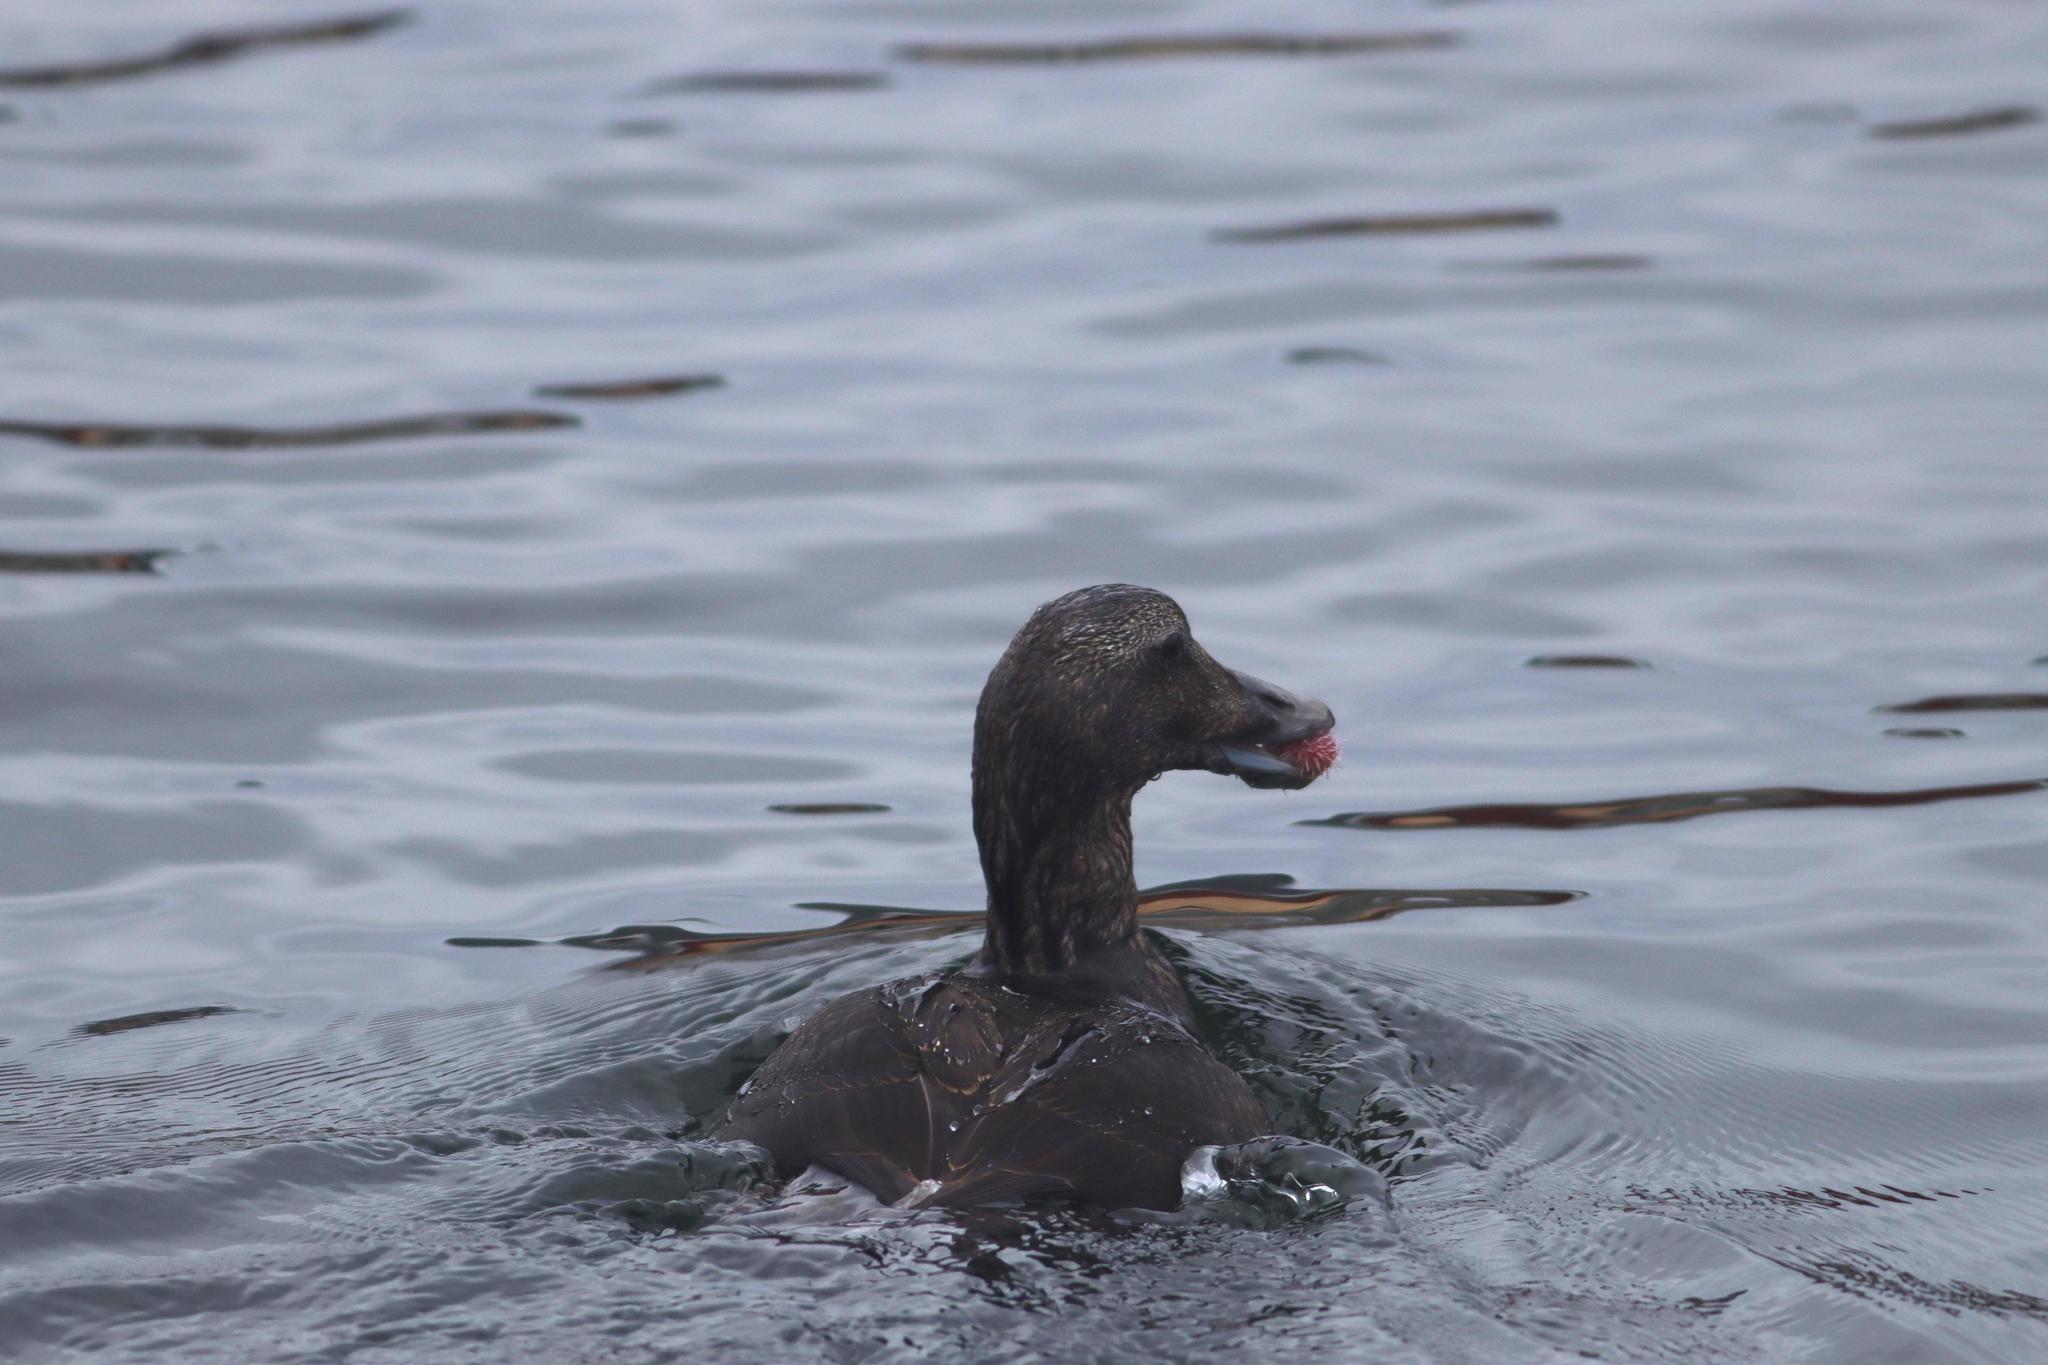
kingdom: Animalia
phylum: Chordata
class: Aves
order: Anseriformes
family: Anatidae
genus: Somateria
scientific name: Somateria mollissima
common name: Common eider
